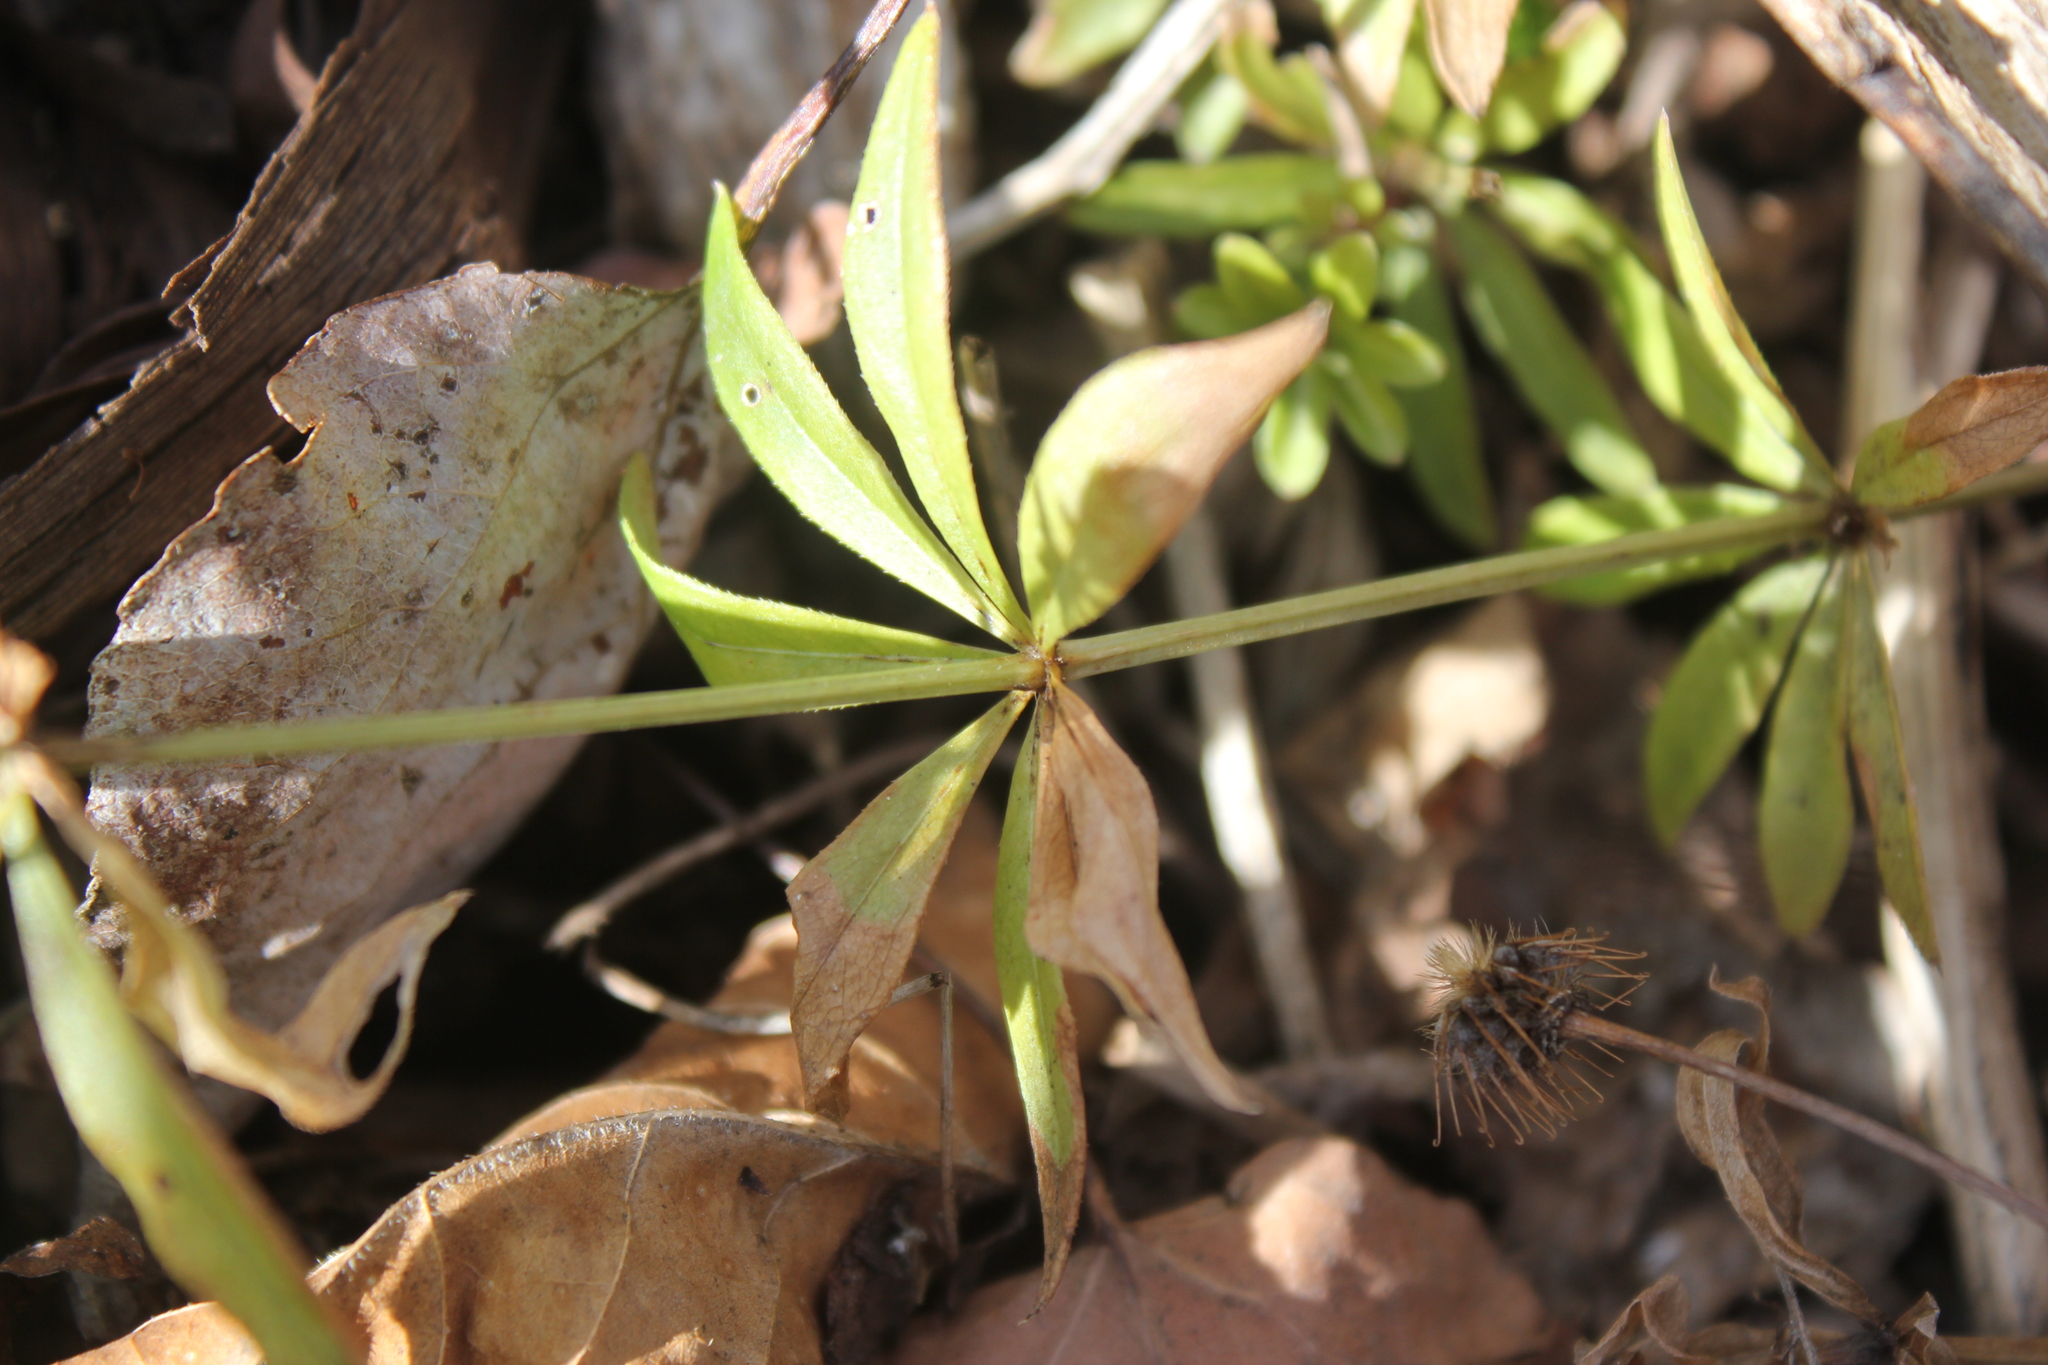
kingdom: Plantae
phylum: Tracheophyta
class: Magnoliopsida
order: Gentianales
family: Rubiaceae
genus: Galium
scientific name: Galium odoratum
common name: Sweet woodruff
